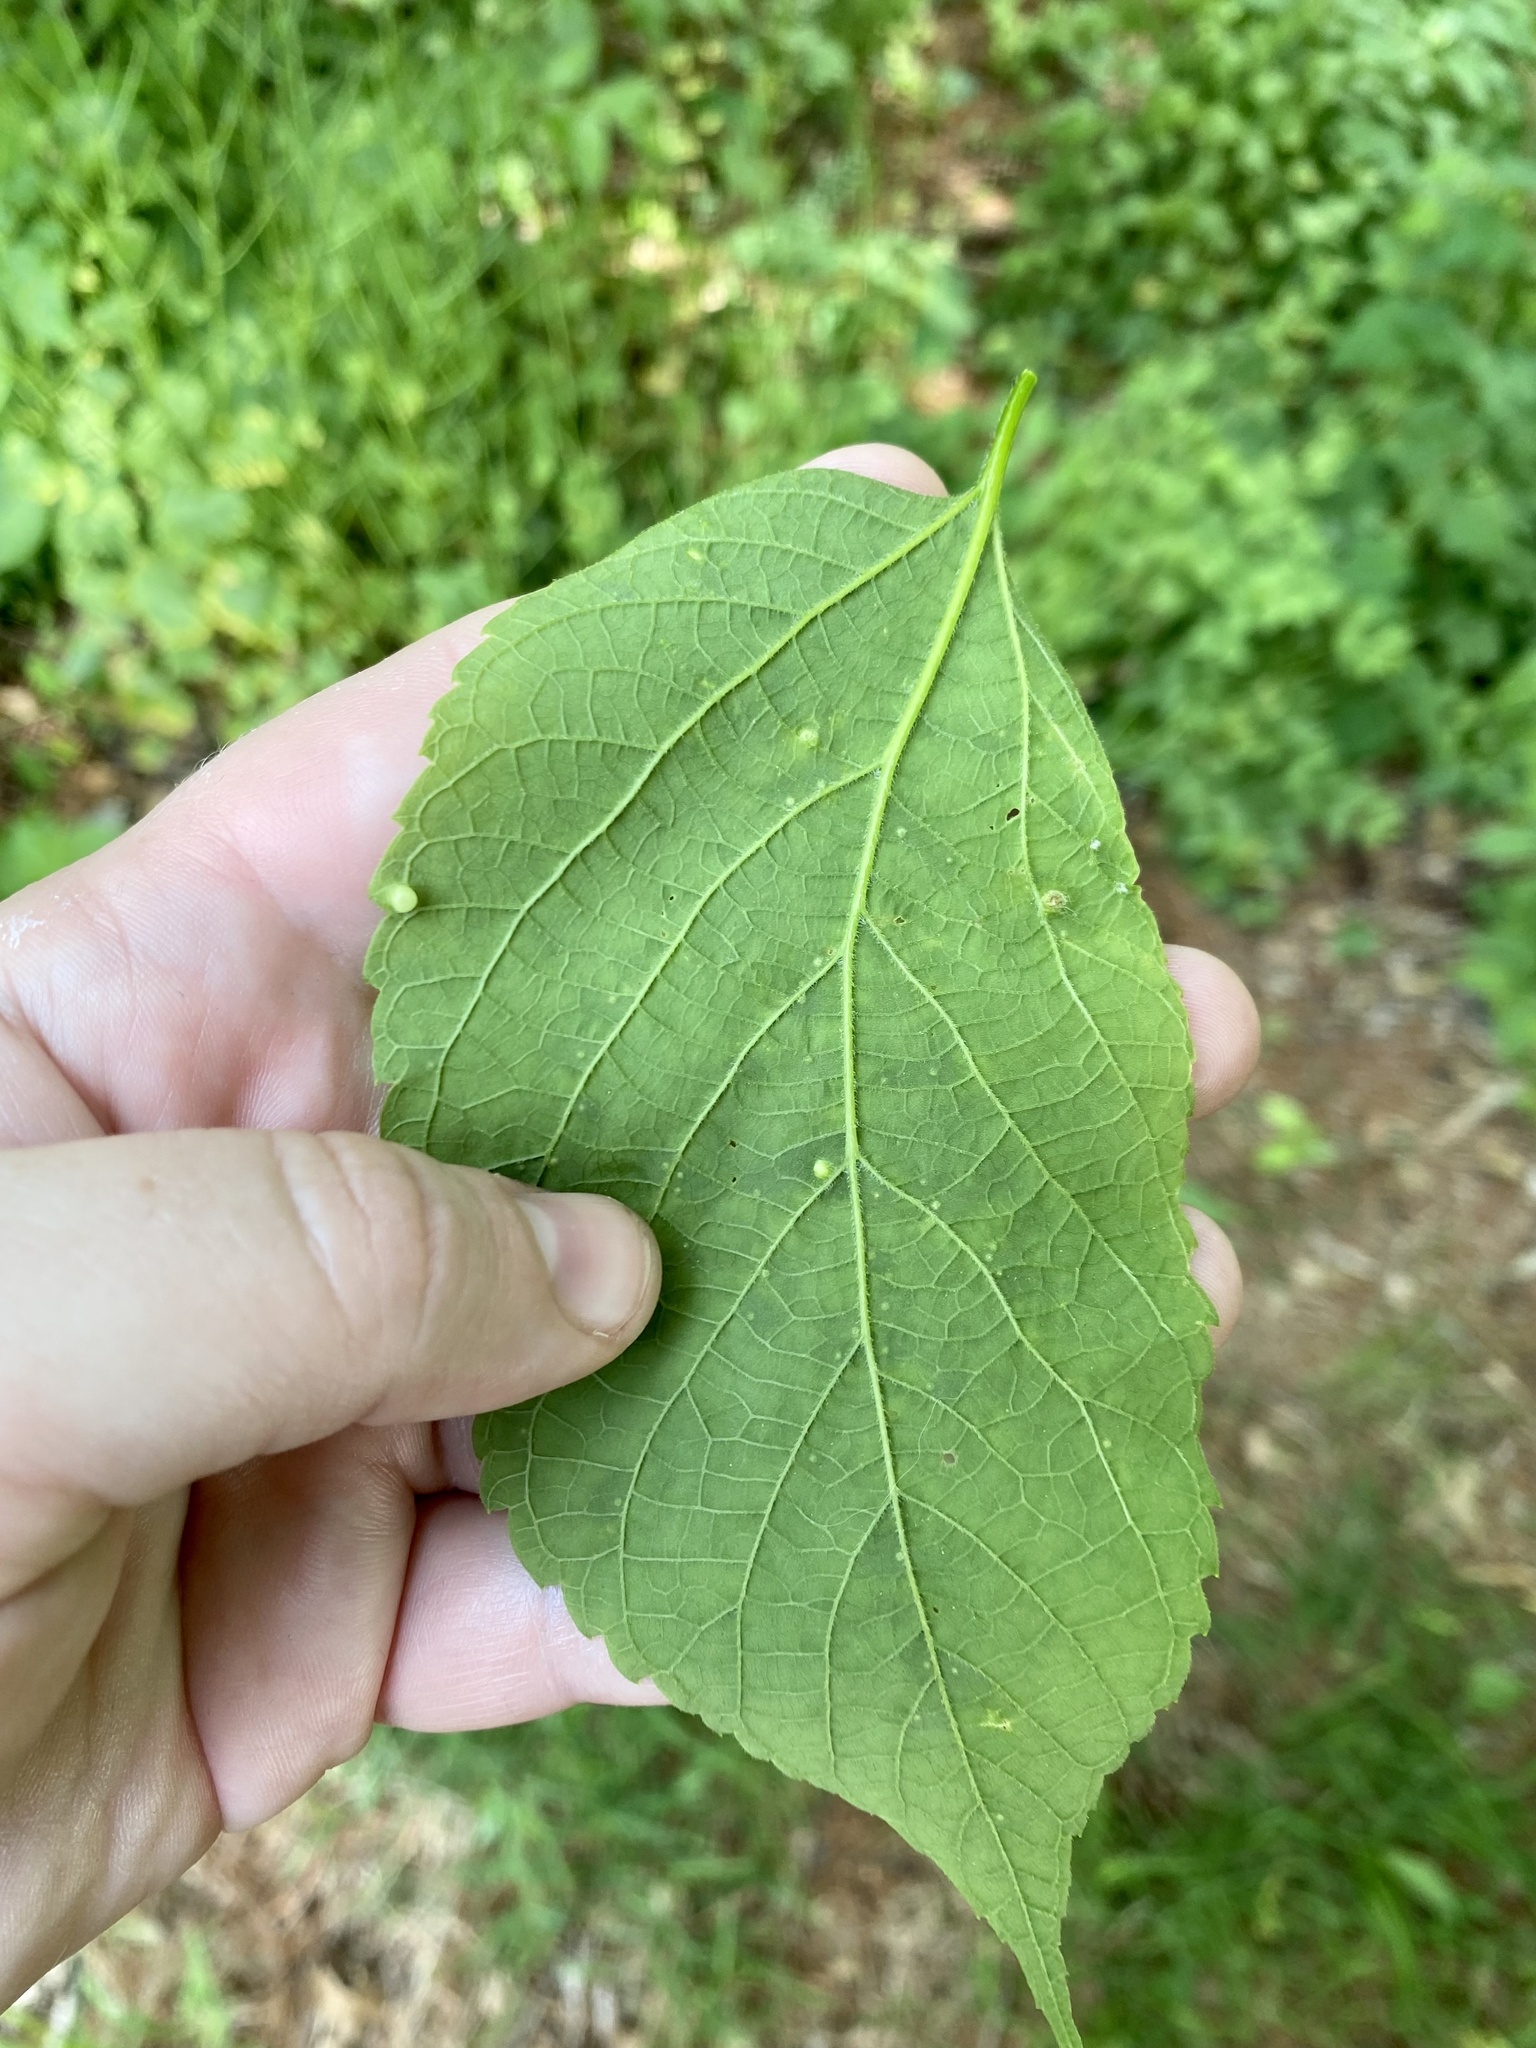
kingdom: Animalia
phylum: Arthropoda
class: Insecta
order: Hemiptera
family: Aphalaridae
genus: Pachypsylla
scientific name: Pachypsylla celtidismamma
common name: Hackberry nipplegall psyllid
